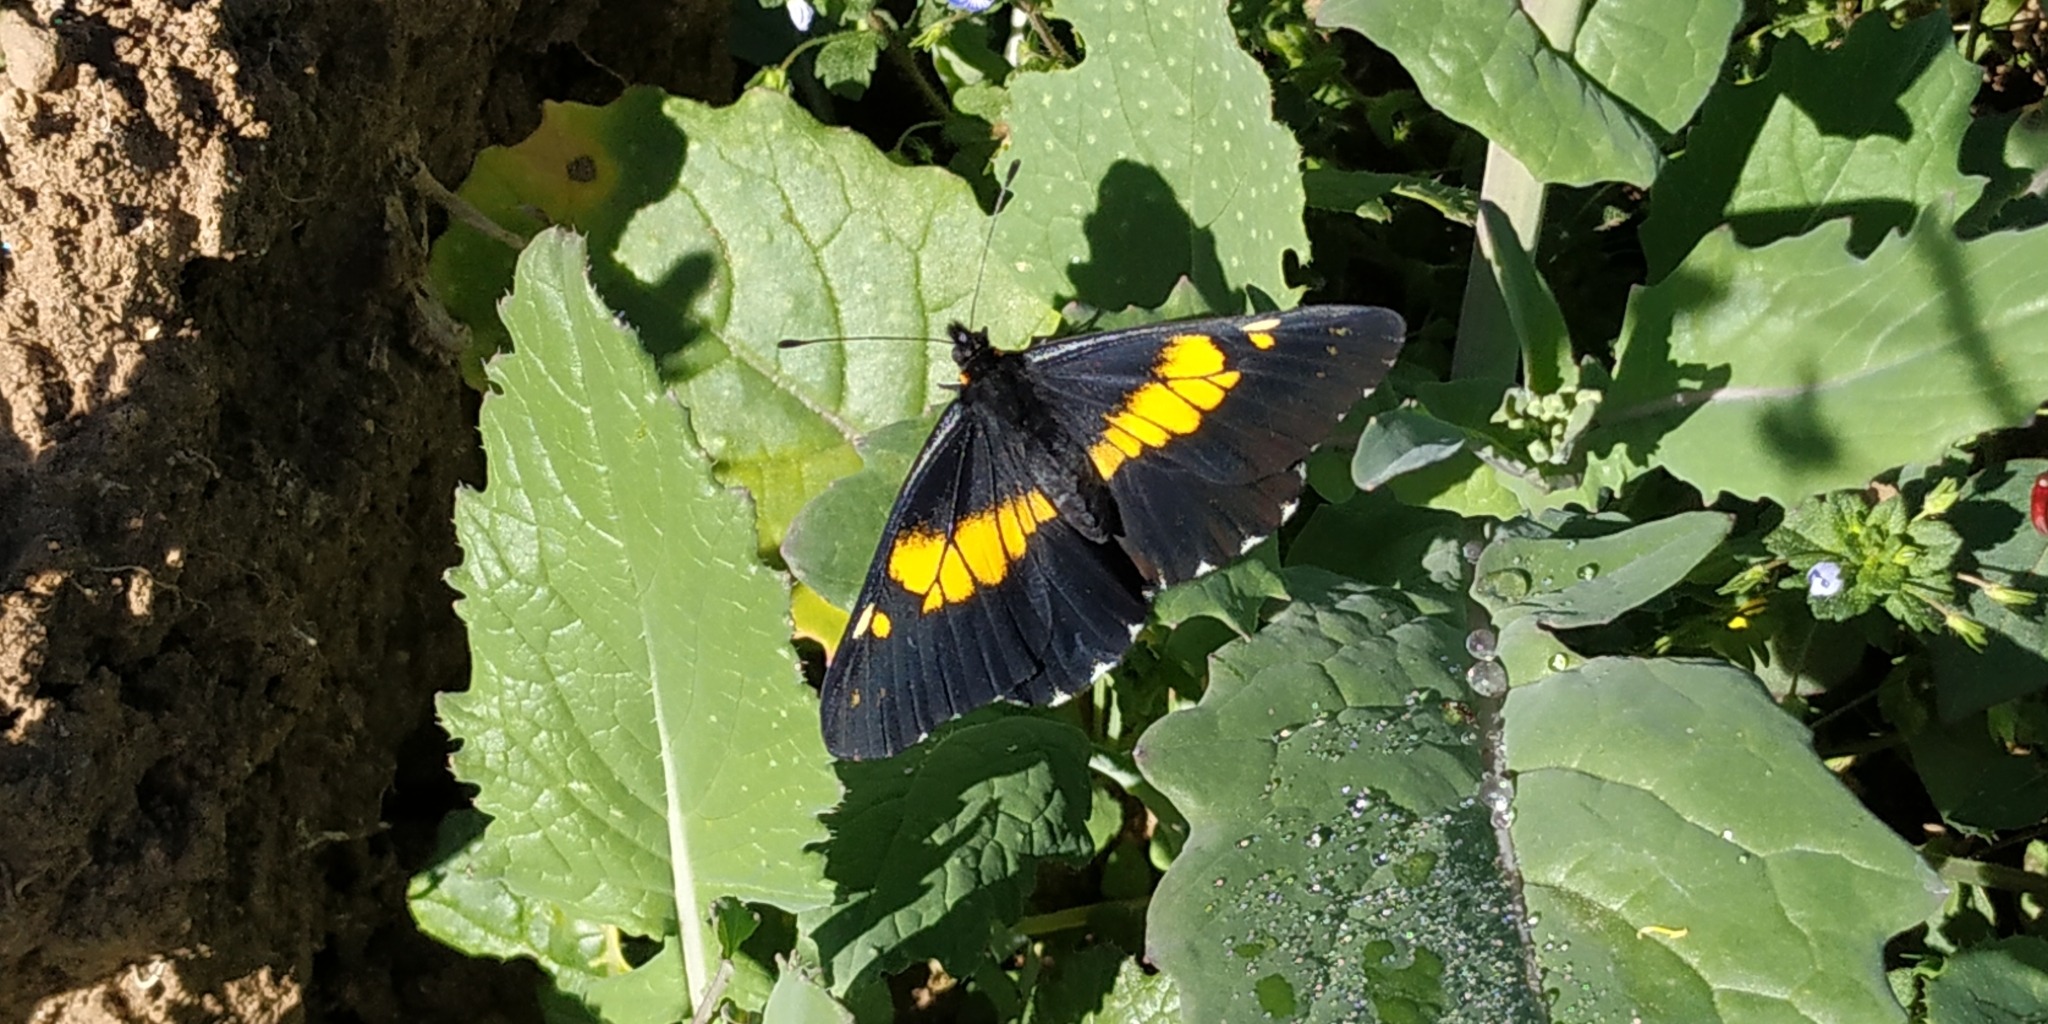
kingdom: Animalia
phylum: Arthropoda
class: Insecta
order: Lepidoptera
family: Pieridae
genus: Archonias
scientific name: Archonias teutila
